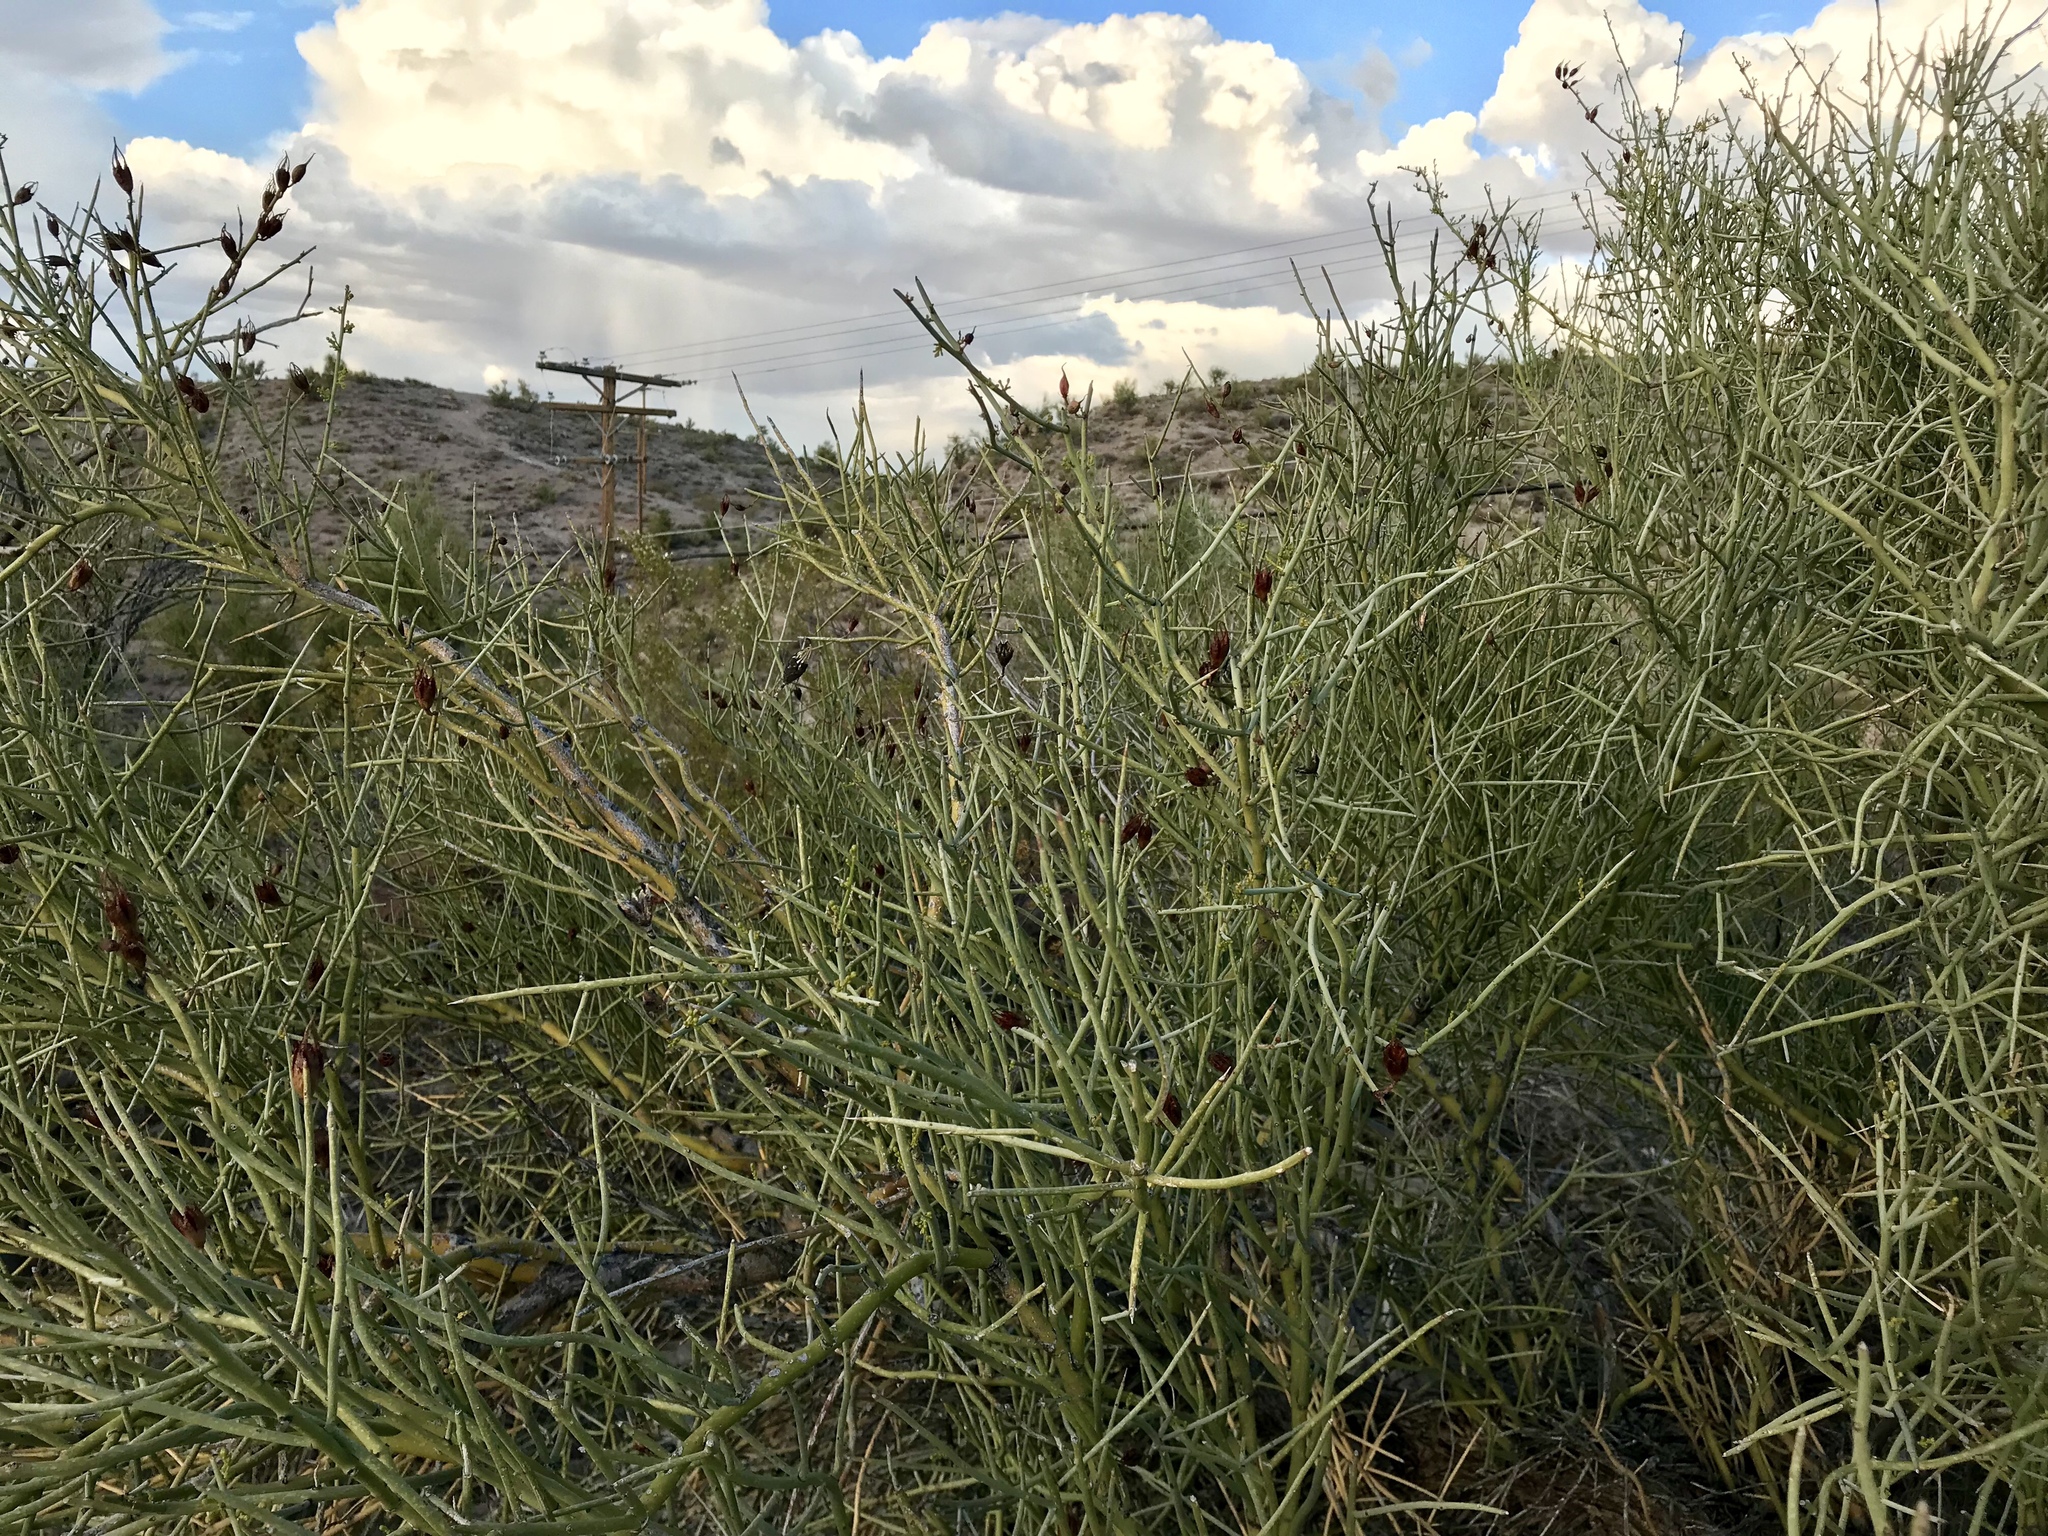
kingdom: Plantae
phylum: Tracheophyta
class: Magnoliopsida
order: Celastrales
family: Celastraceae
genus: Canotia
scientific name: Canotia holacantha
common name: Crucifixion thorns
